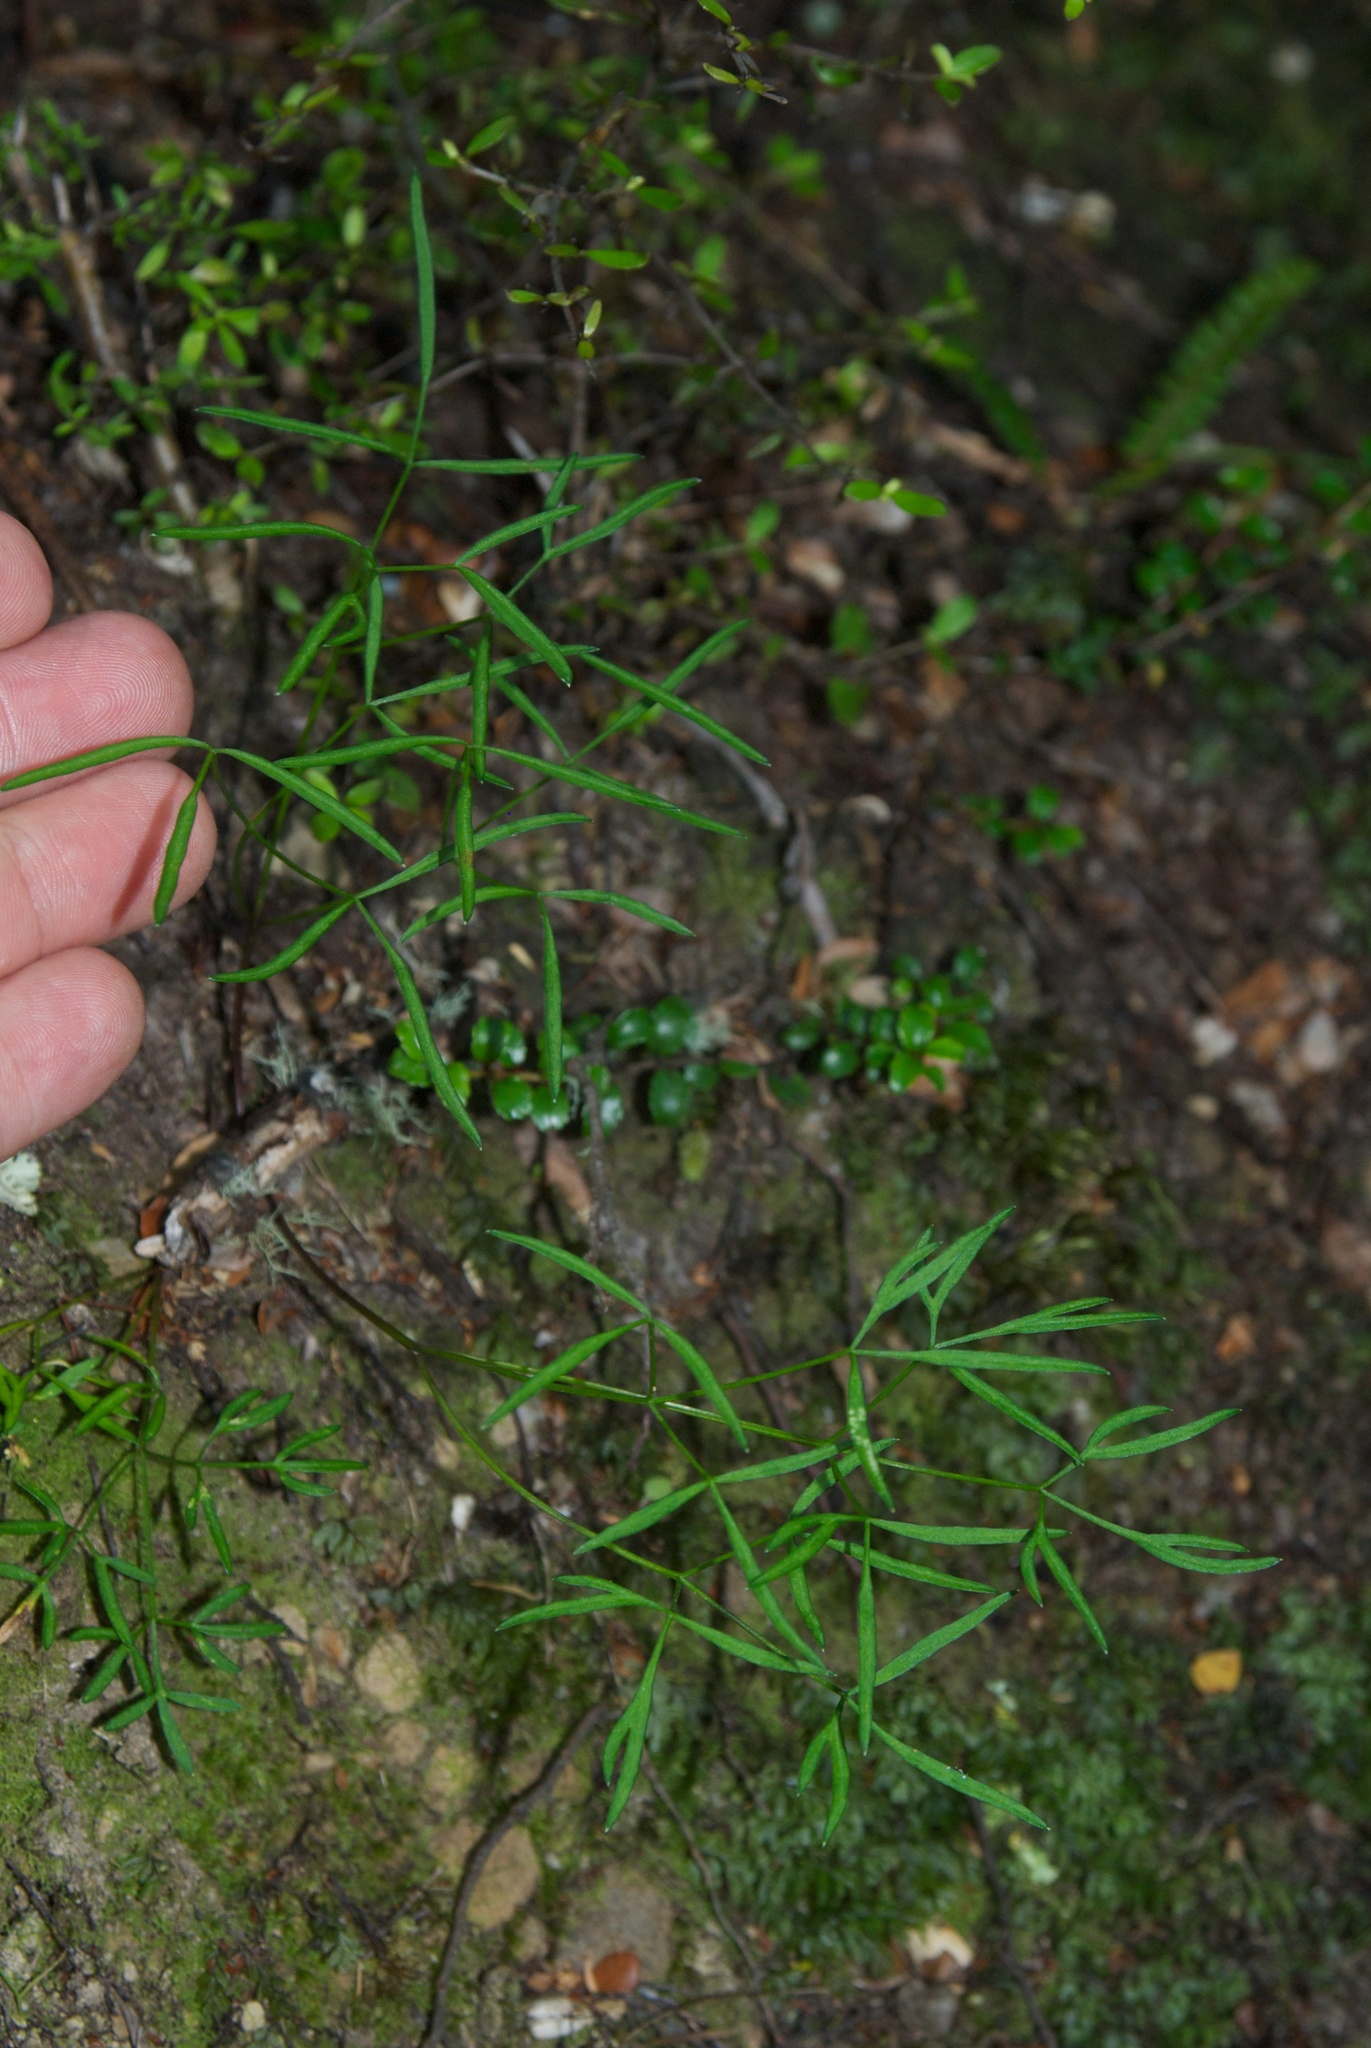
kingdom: Plantae
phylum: Tracheophyta
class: Magnoliopsida
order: Apiales
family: Apiaceae
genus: Anisotome
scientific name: Anisotome filifolia
